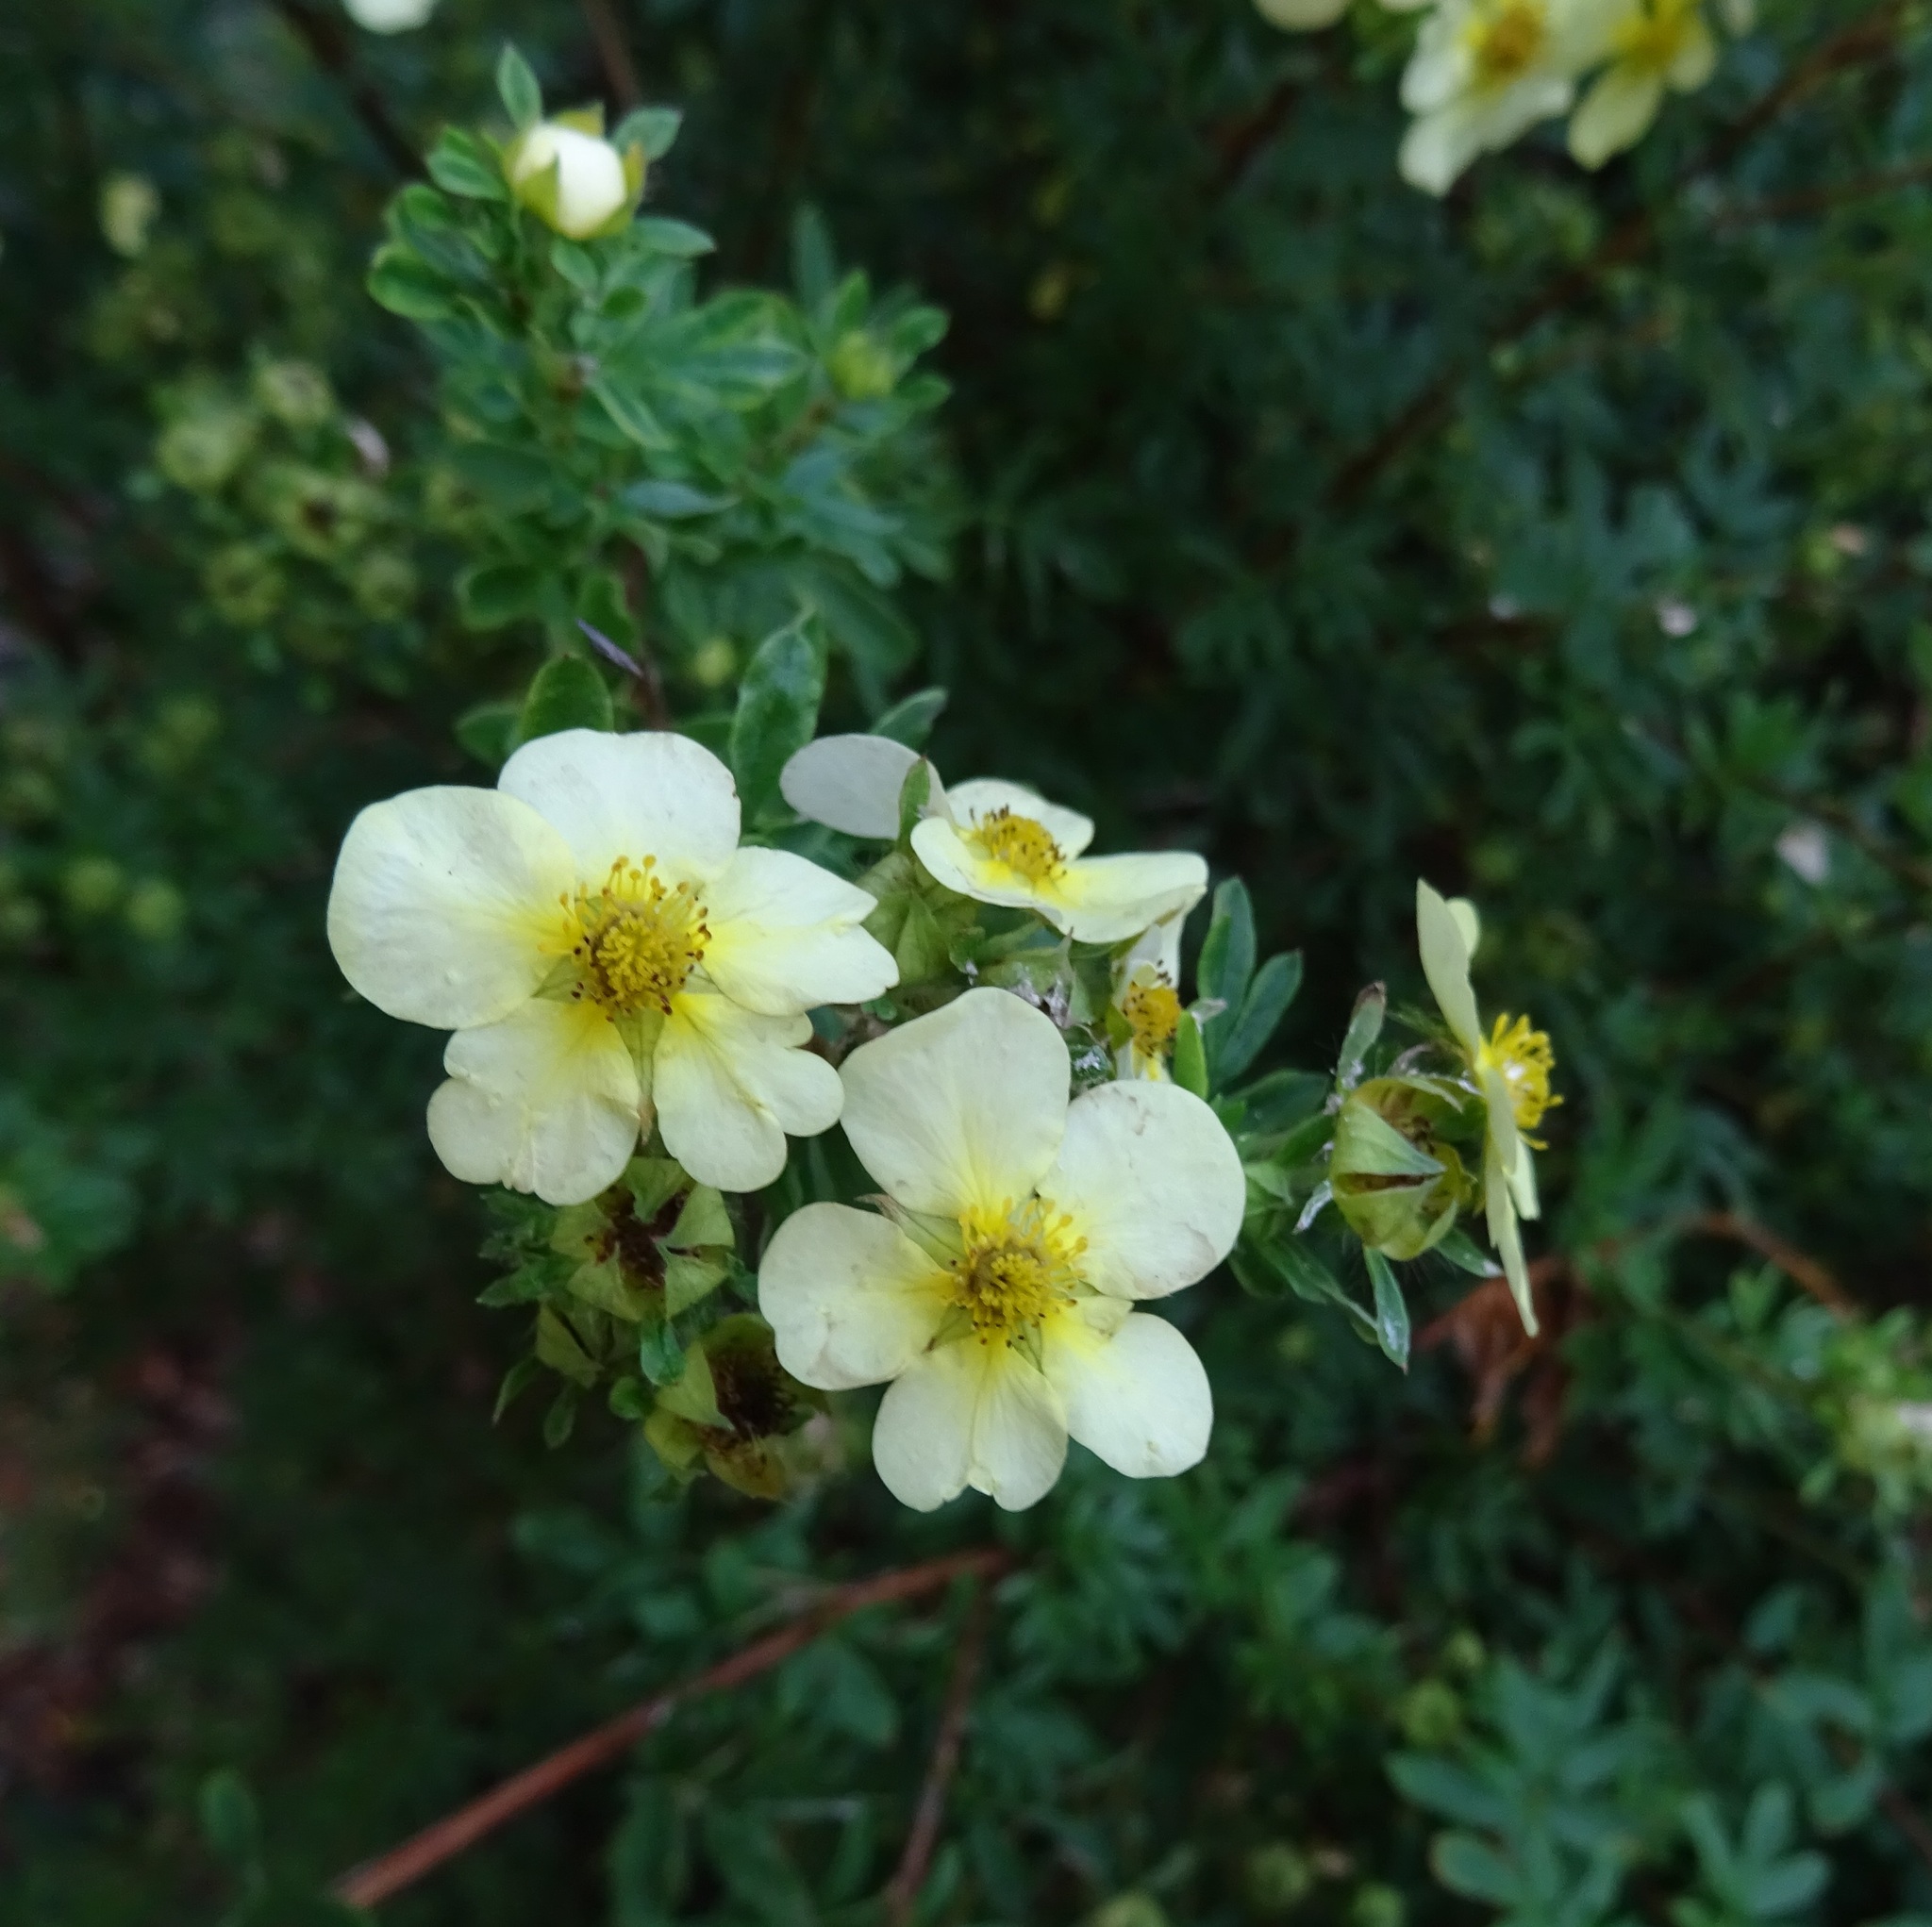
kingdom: Plantae
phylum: Tracheophyta
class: Magnoliopsida
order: Rosales
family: Rosaceae
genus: Dasiphora
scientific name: Dasiphora fruticosa
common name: Shrubby cinquefoil
